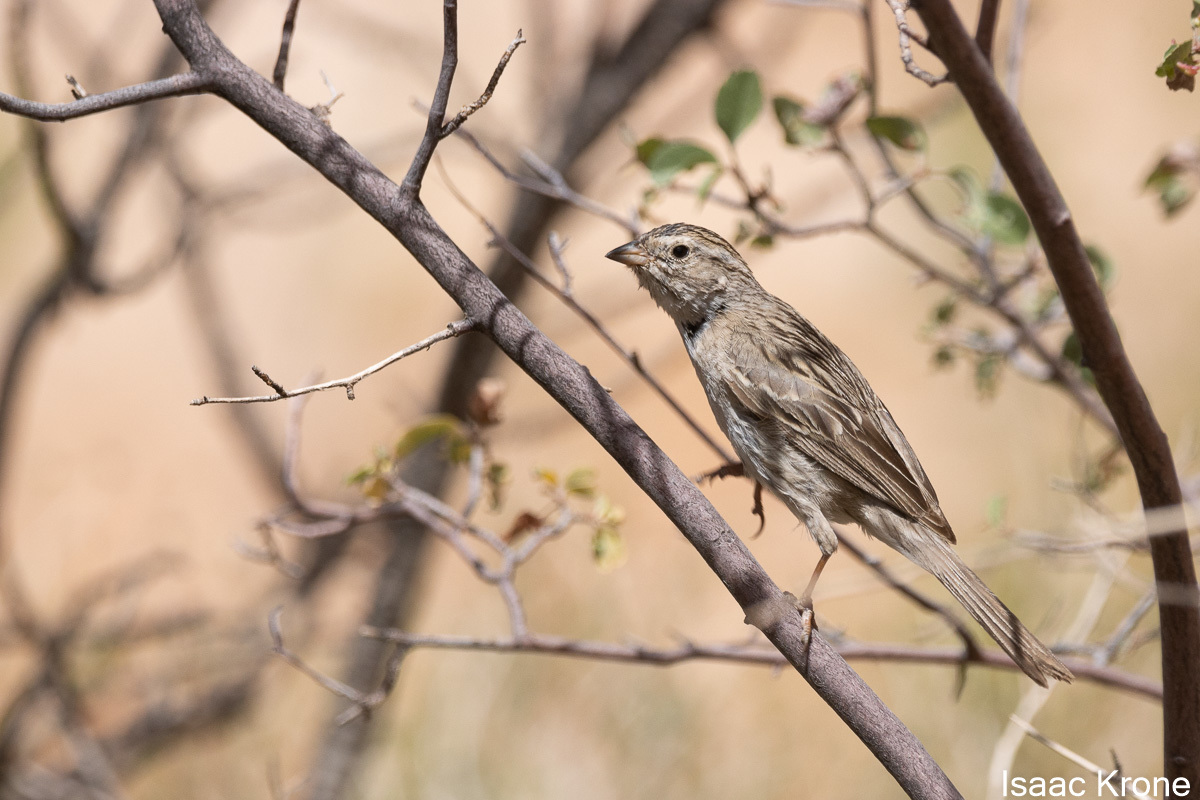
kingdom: Animalia
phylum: Chordata
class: Aves
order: Passeriformes
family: Passerellidae
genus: Spizella
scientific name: Spizella breweri
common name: Brewer's sparrow
